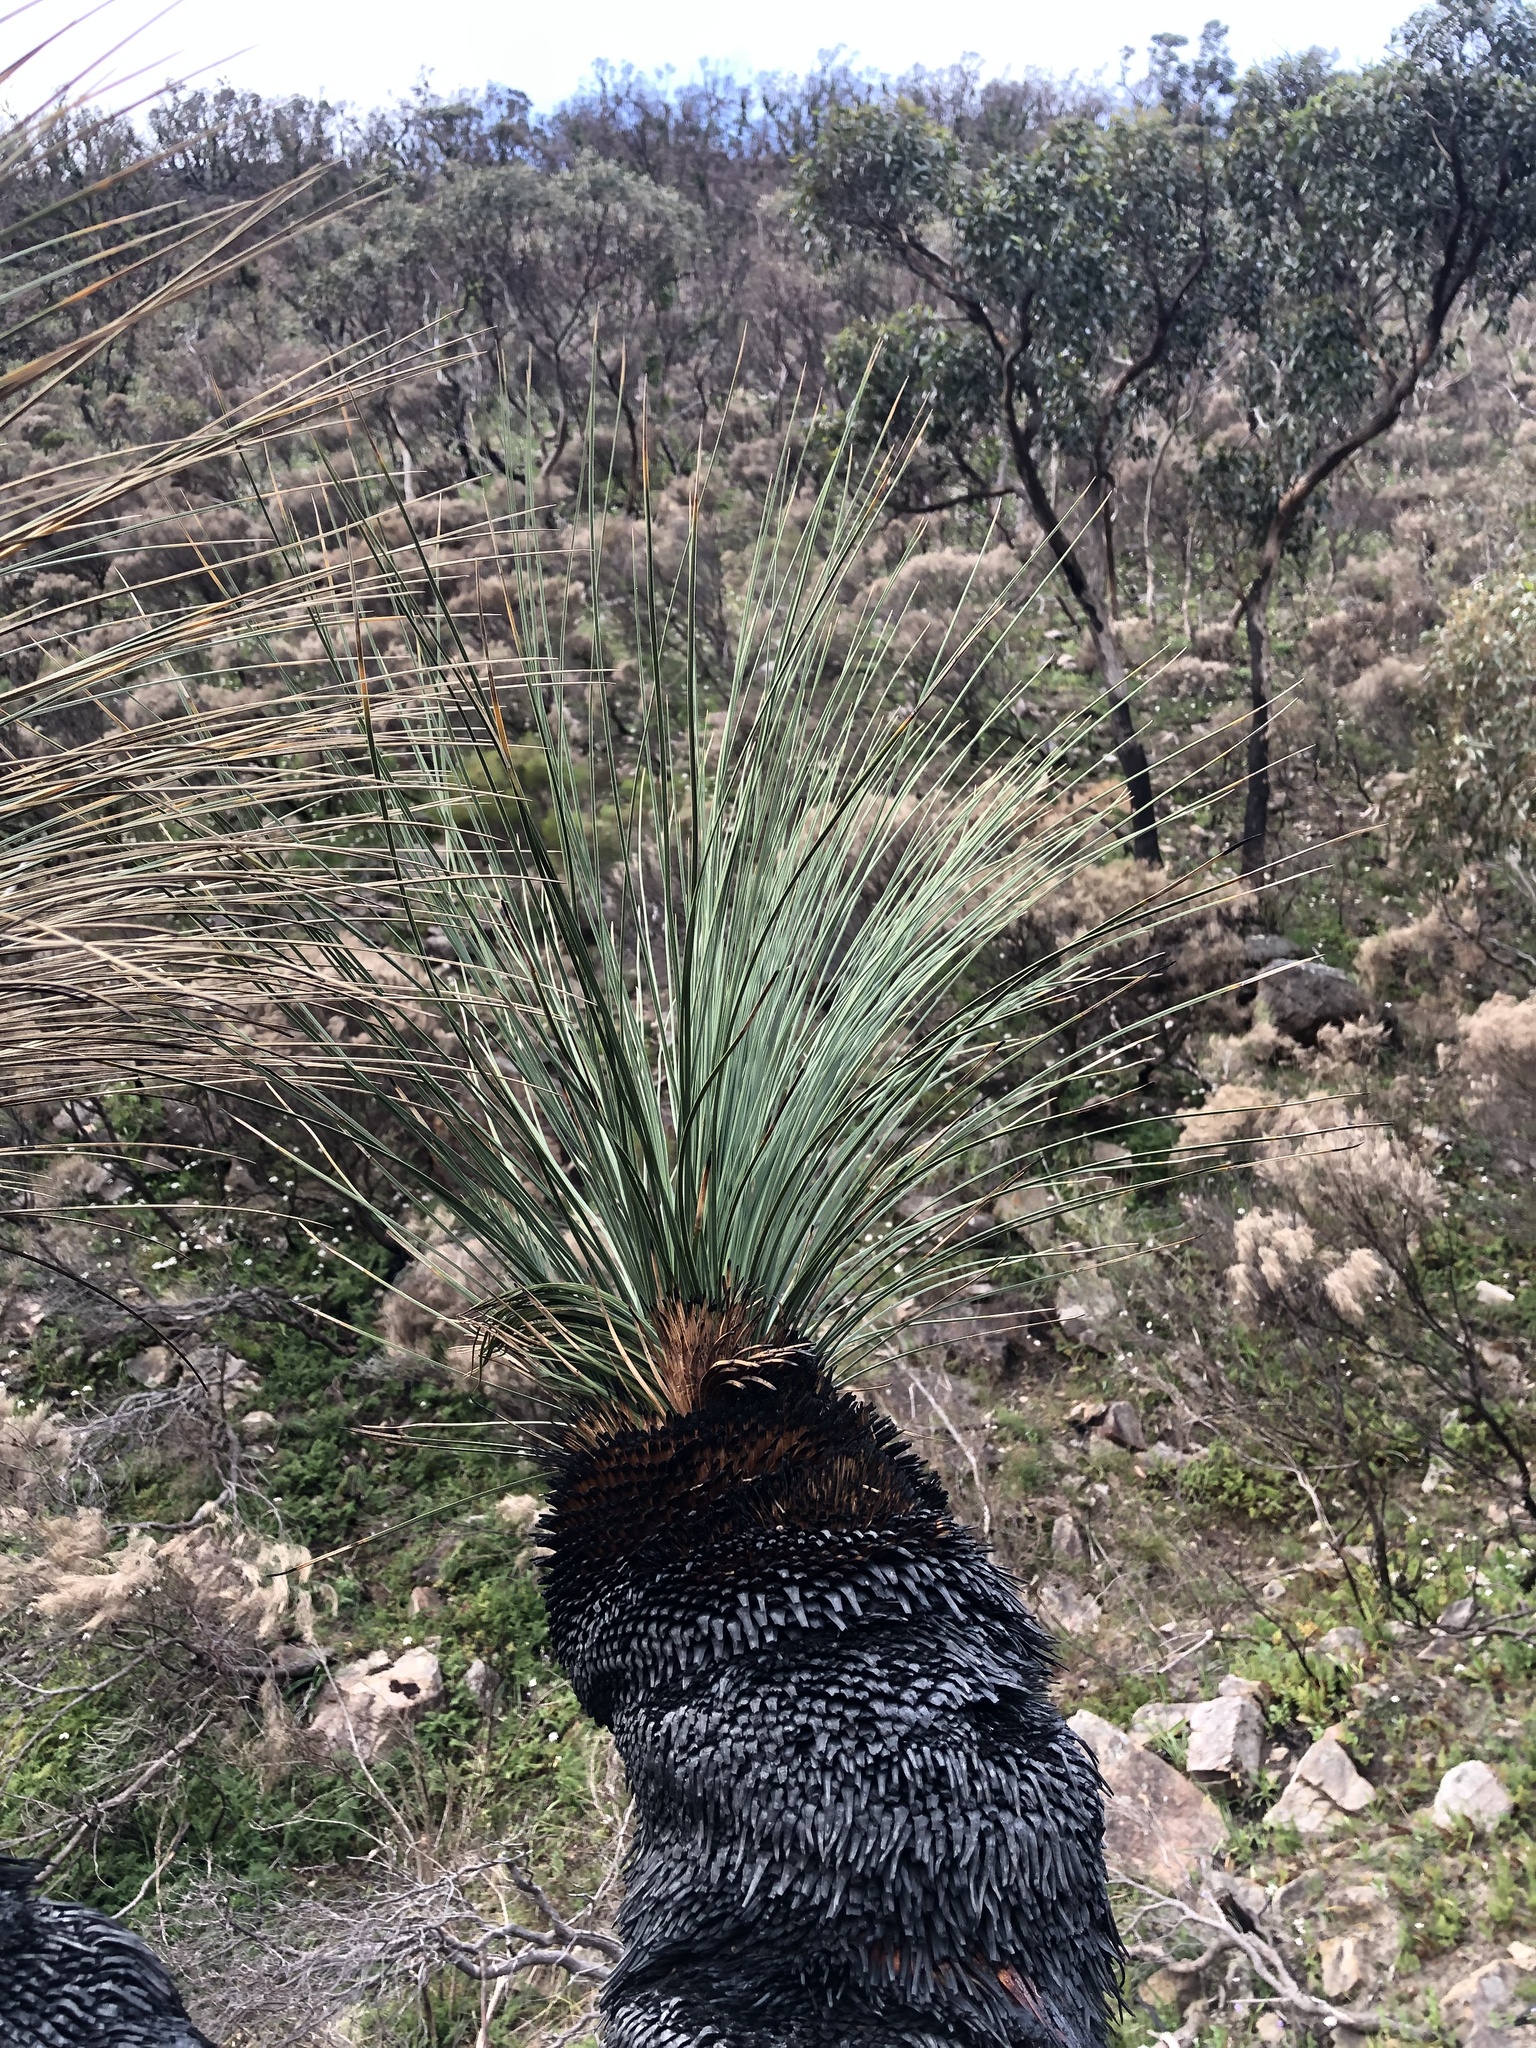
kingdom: Plantae
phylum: Tracheophyta
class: Liliopsida
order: Asparagales
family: Asphodelaceae
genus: Xanthorrhoea
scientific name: Xanthorrhoea quadrangulata
